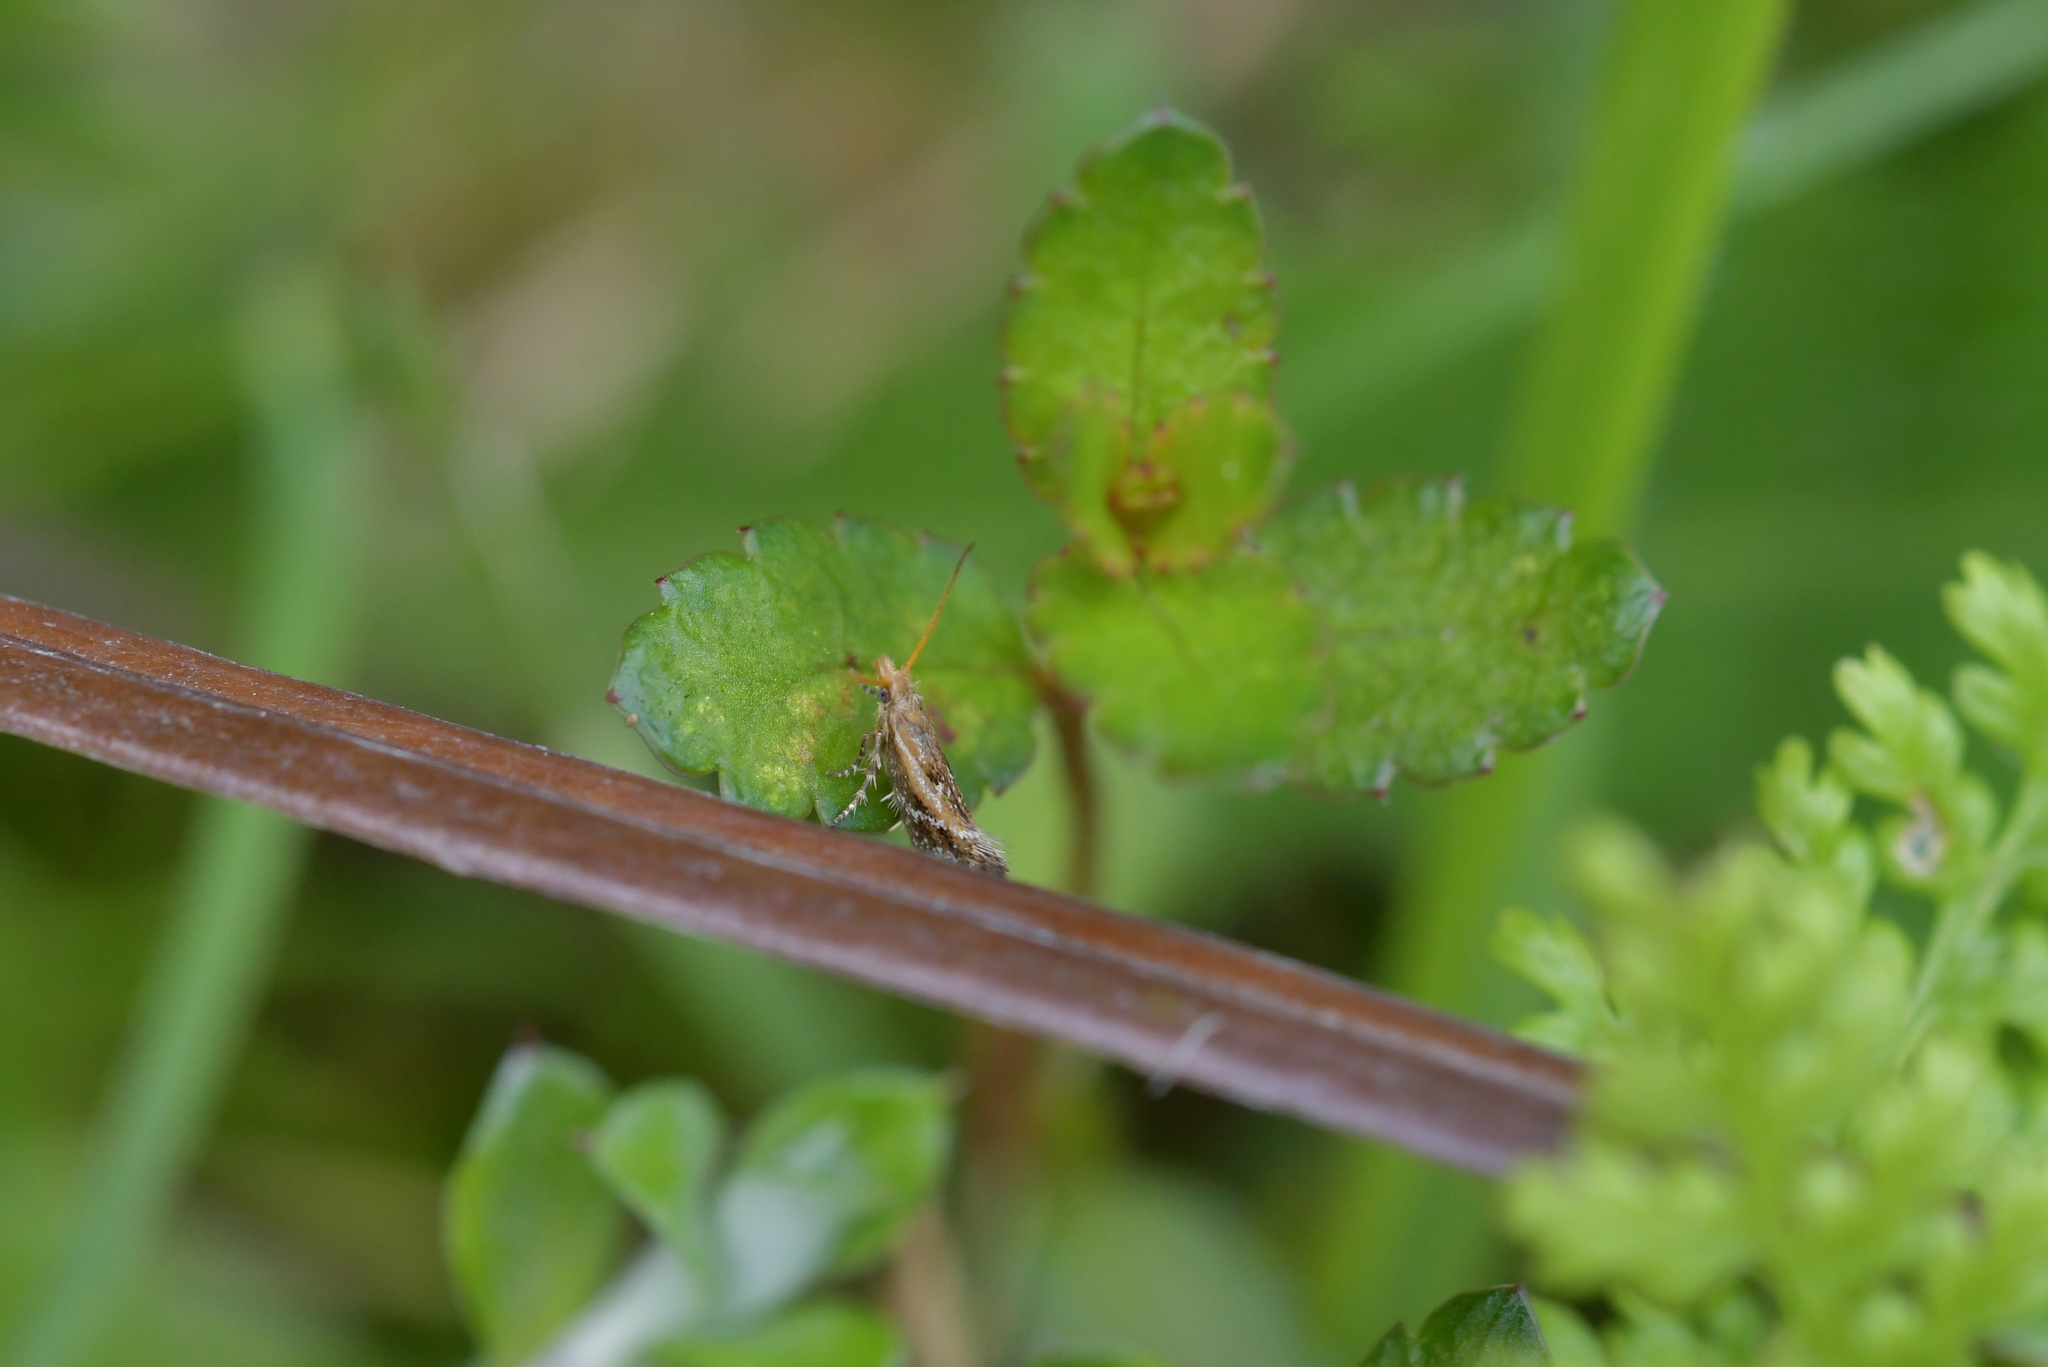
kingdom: Animalia
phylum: Arthropoda
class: Insecta
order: Lepidoptera
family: Mnesarchaeidae
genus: Mnesarchaea
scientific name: Mnesarchaea paracosma
